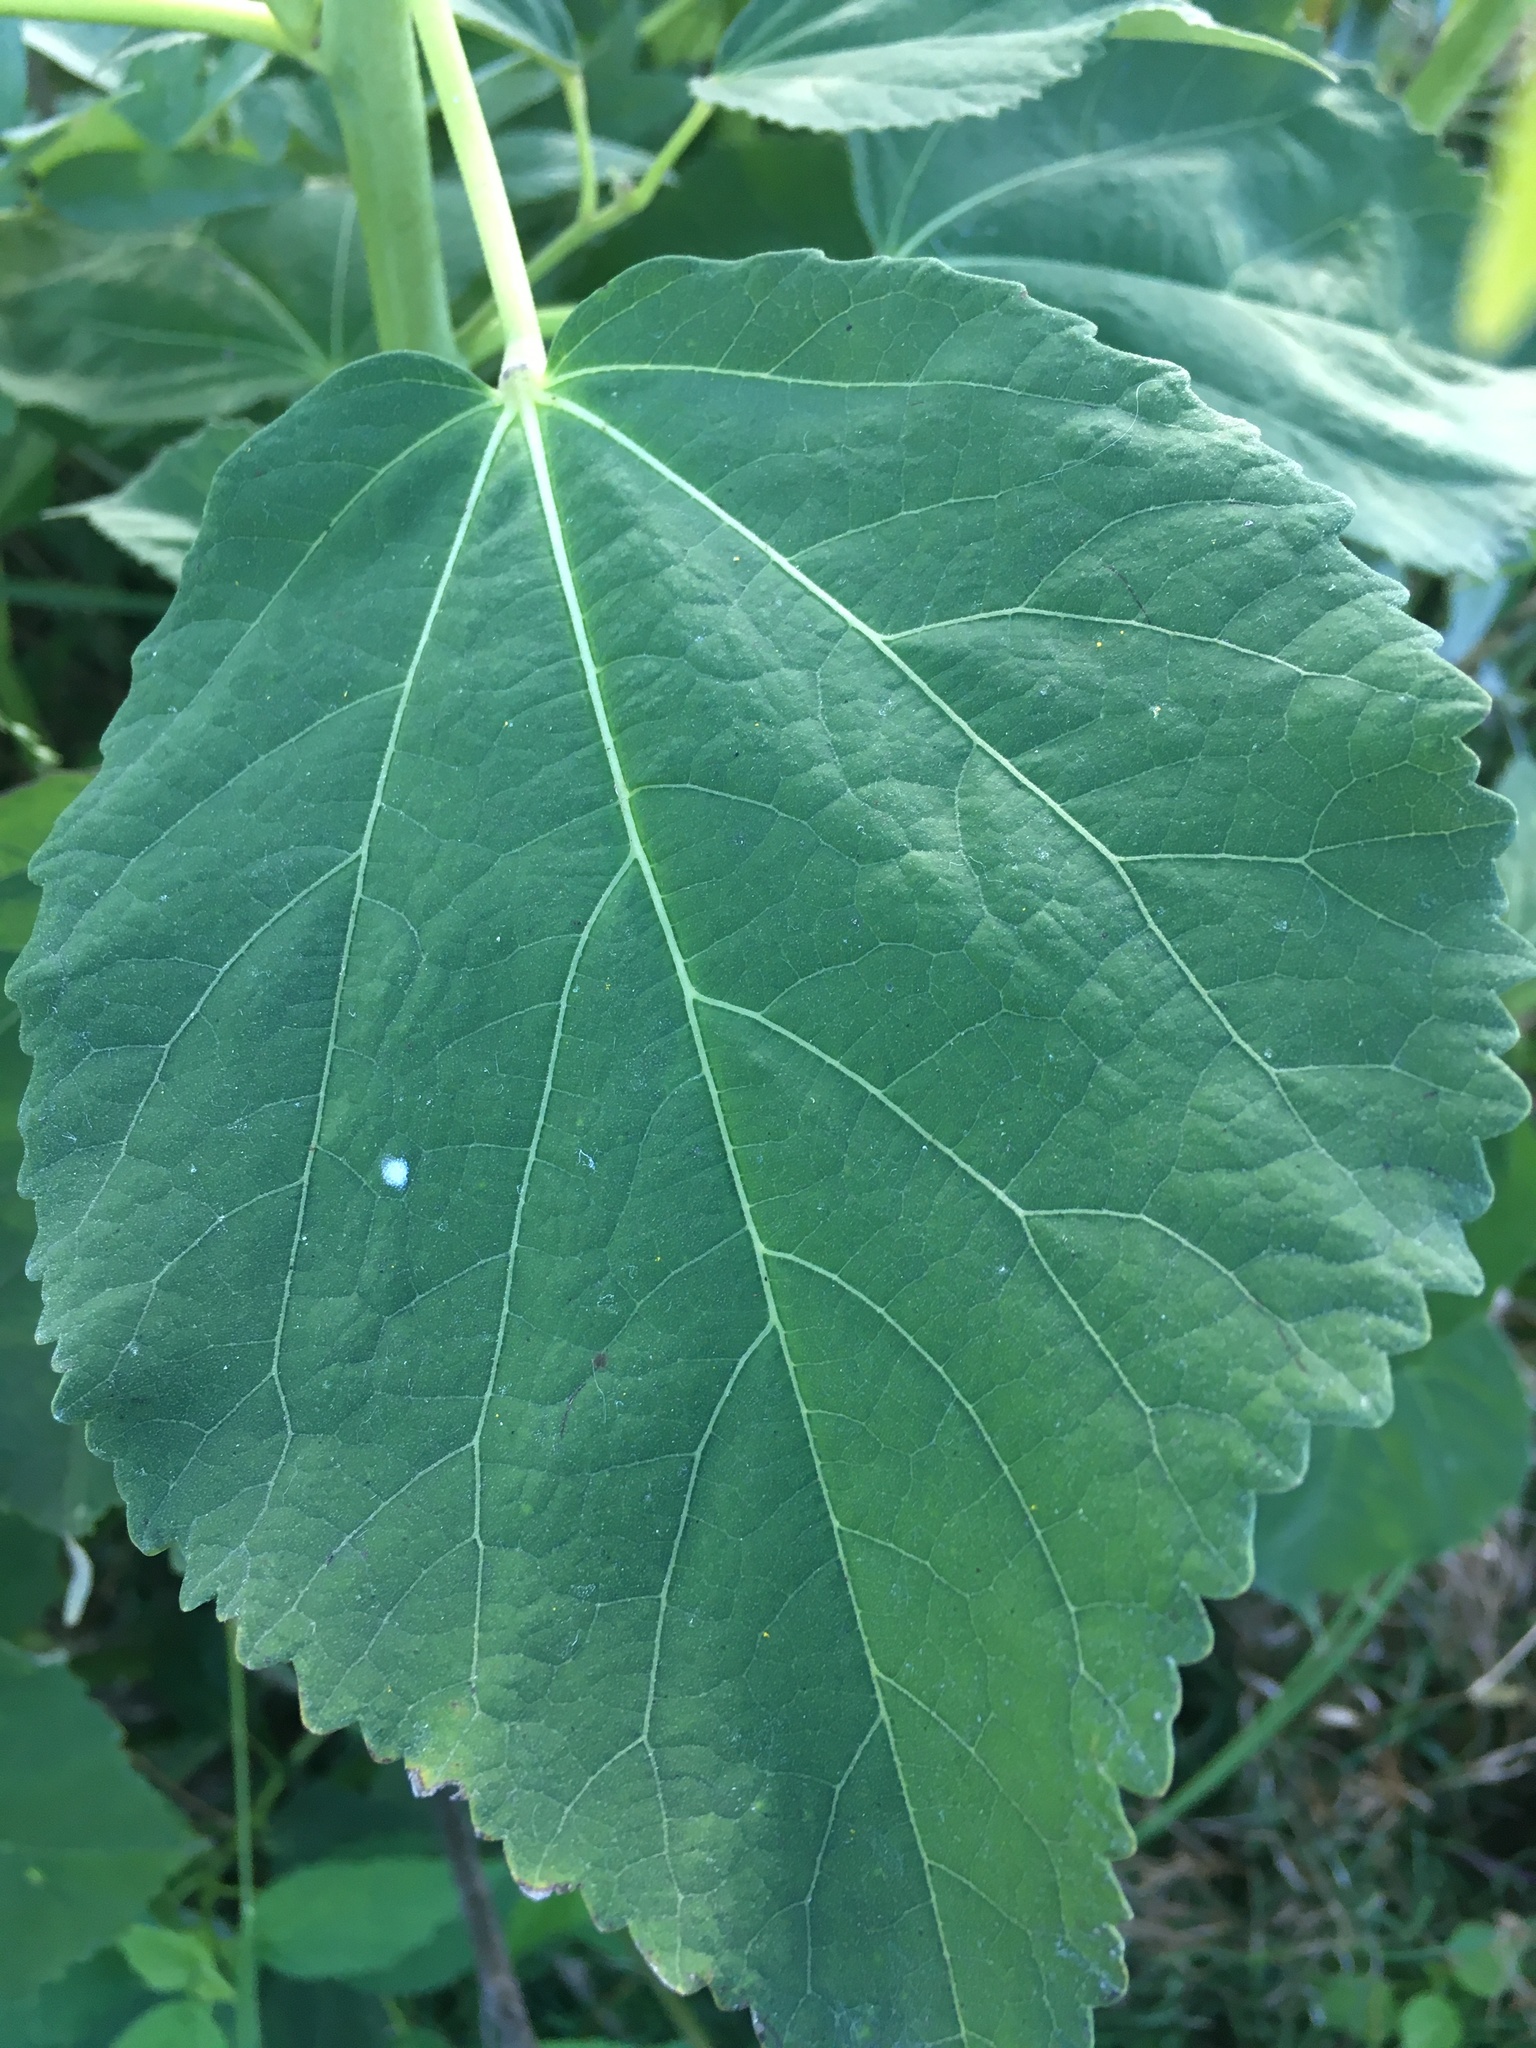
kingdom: Plantae
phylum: Tracheophyta
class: Magnoliopsida
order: Malvales
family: Malvaceae
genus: Hibiscus
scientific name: Hibiscus moscheutos
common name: Common rose-mallow
